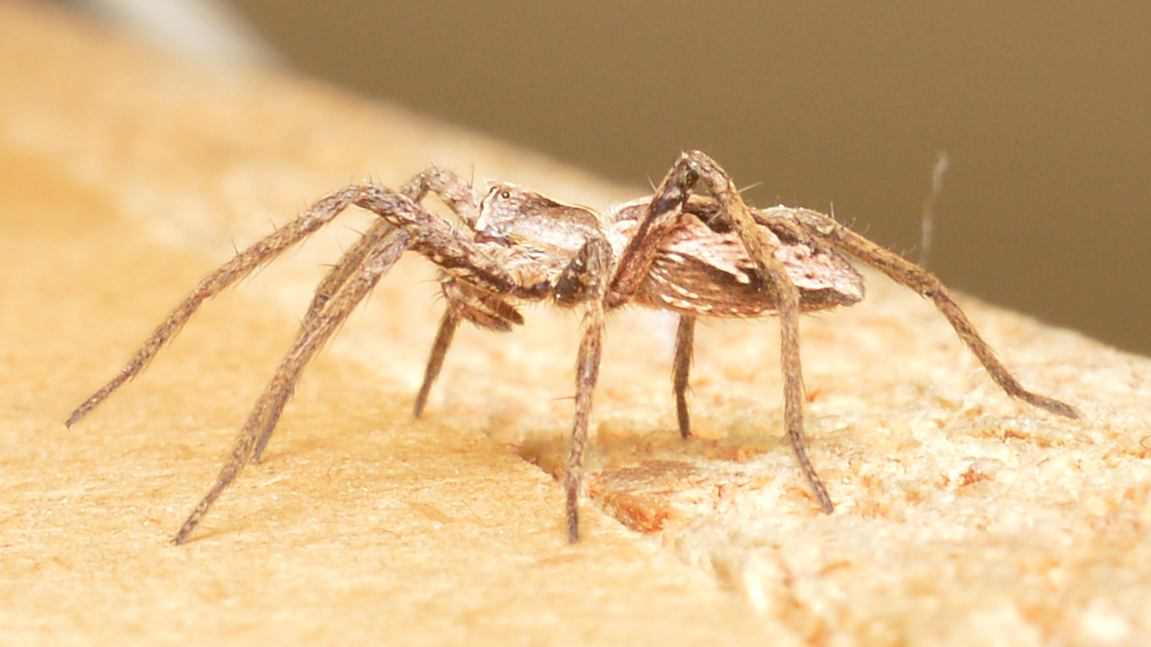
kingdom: Animalia
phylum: Arthropoda
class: Arachnida
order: Araneae
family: Pisauridae
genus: Pisaura
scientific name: Pisaura mirabilis
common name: Tent spider
